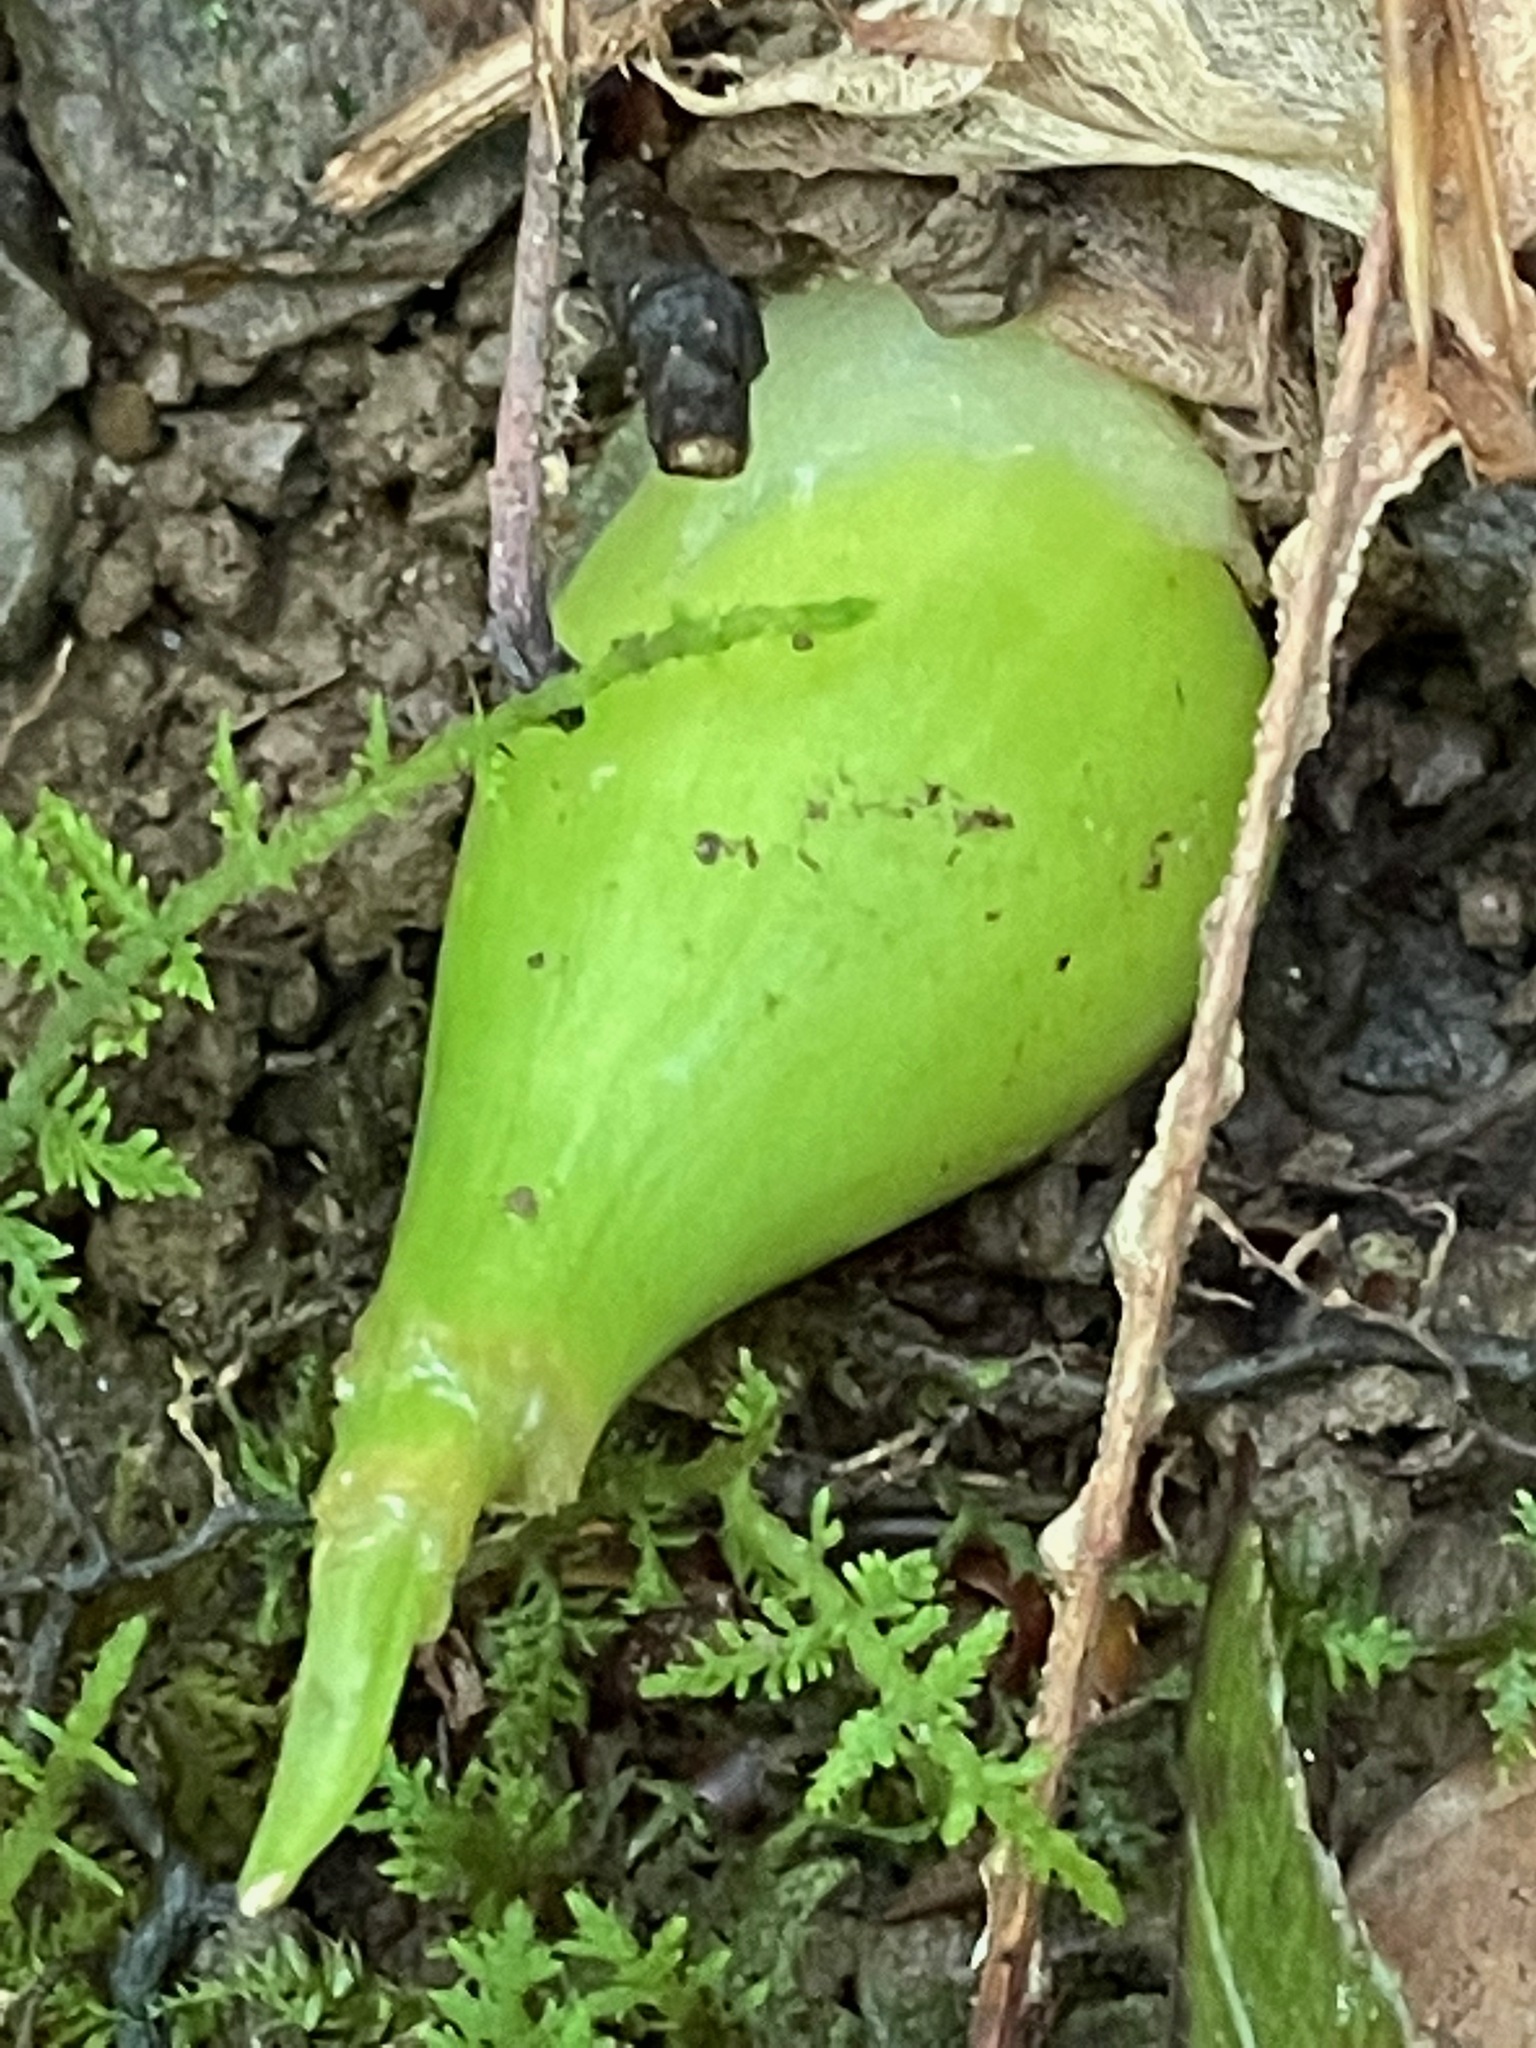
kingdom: Plantae
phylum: Tracheophyta
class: Liliopsida
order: Asparagales
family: Amaryllidaceae
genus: Allium
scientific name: Allium tricoccum
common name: Ramp
